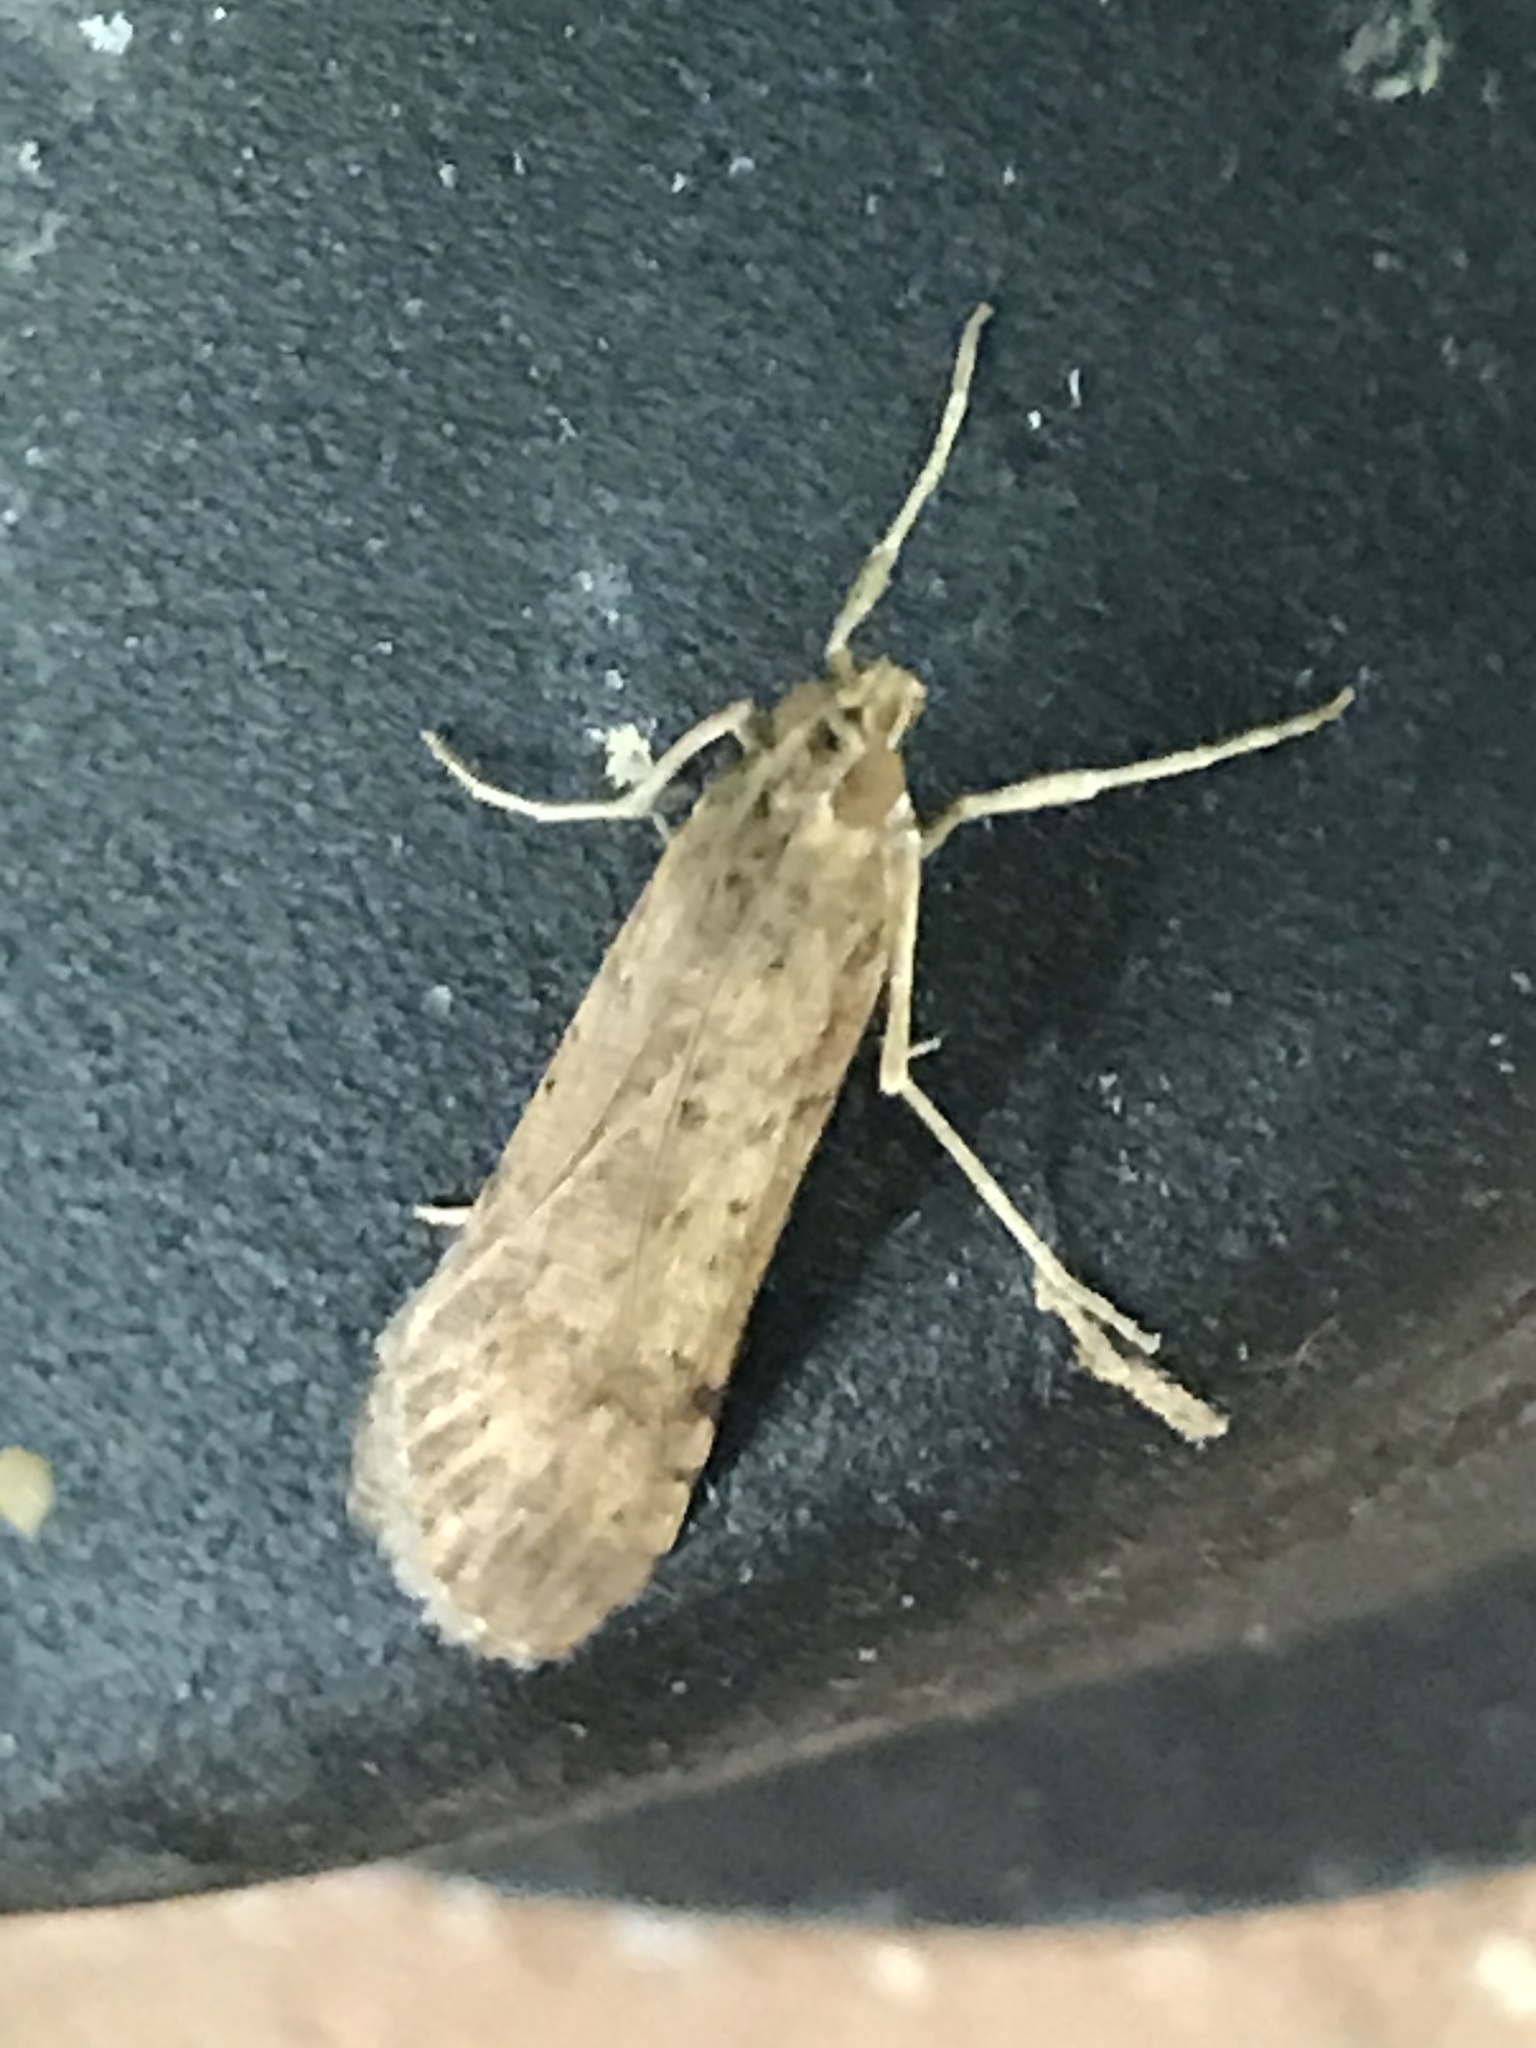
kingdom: Animalia
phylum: Arthropoda
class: Insecta
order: Lepidoptera
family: Crambidae
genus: Nomophila
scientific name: Nomophila nearctica
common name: American rush veneer
